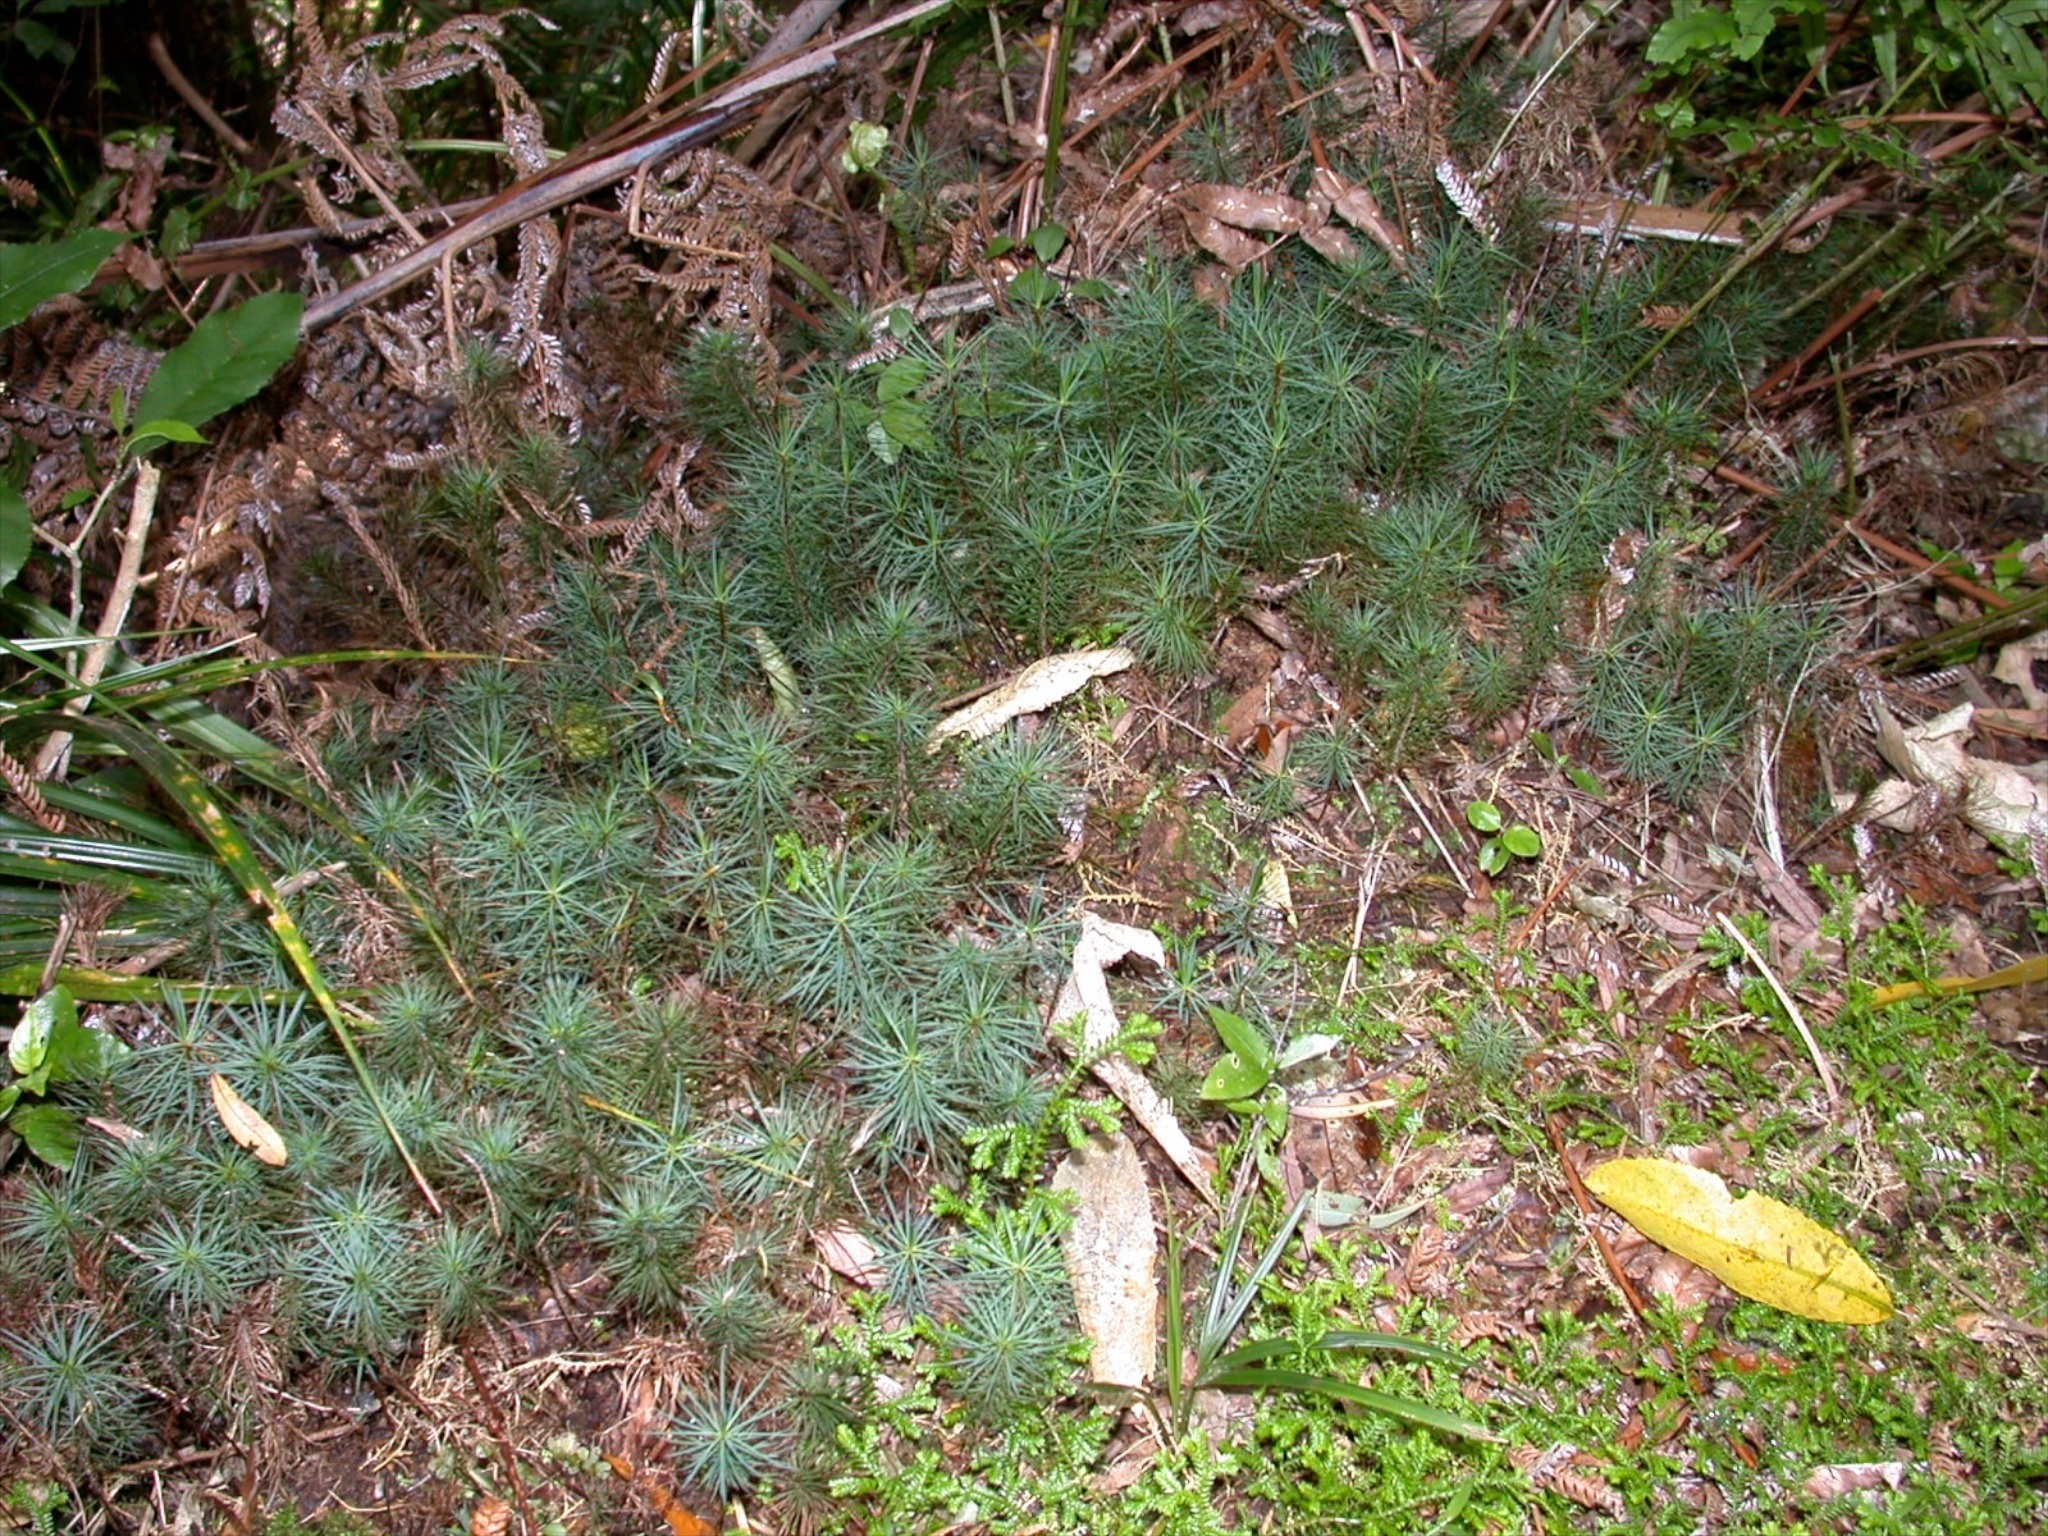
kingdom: Plantae
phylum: Bryophyta
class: Polytrichopsida
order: Polytrichales
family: Polytrichaceae
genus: Dawsonia
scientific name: Dawsonia superba
